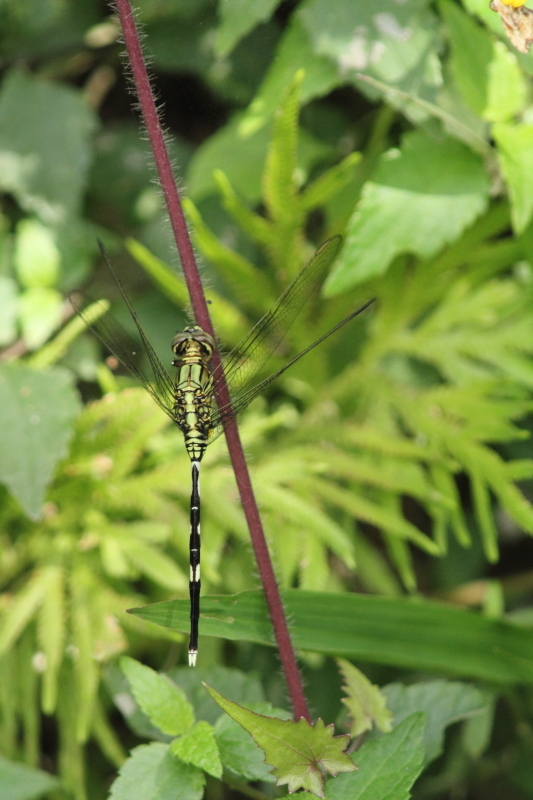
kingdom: Animalia
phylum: Arthropoda
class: Insecta
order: Odonata
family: Libellulidae
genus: Orthetrum
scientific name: Orthetrum sabina
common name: Slender skimmer
